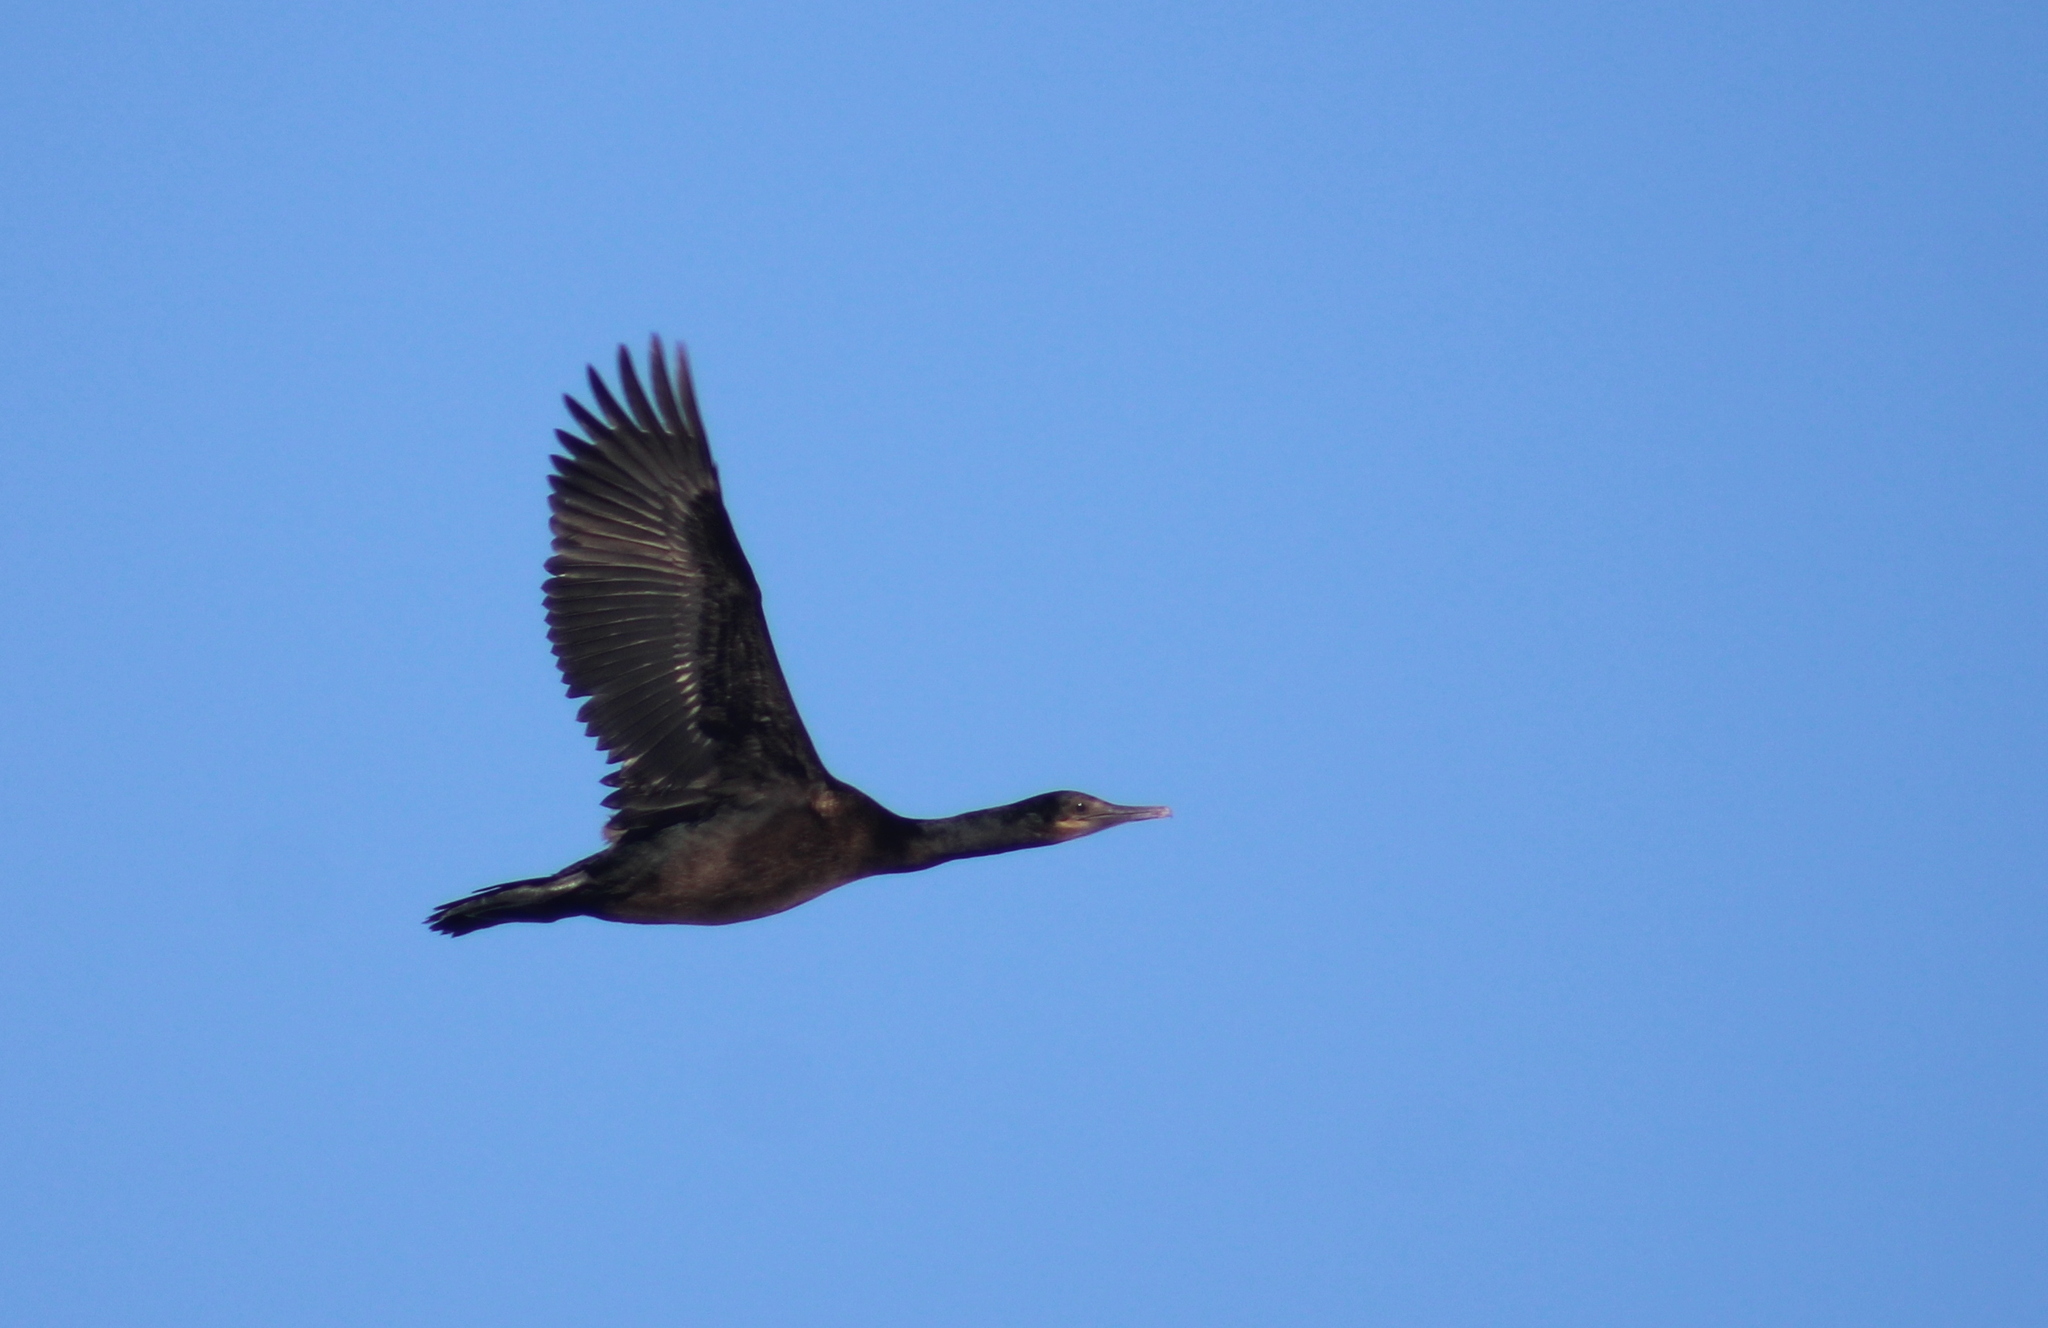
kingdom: Animalia
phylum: Chordata
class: Aves
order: Suliformes
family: Phalacrocoracidae
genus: Urile
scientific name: Urile penicillatus
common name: Brandt's cormorant
